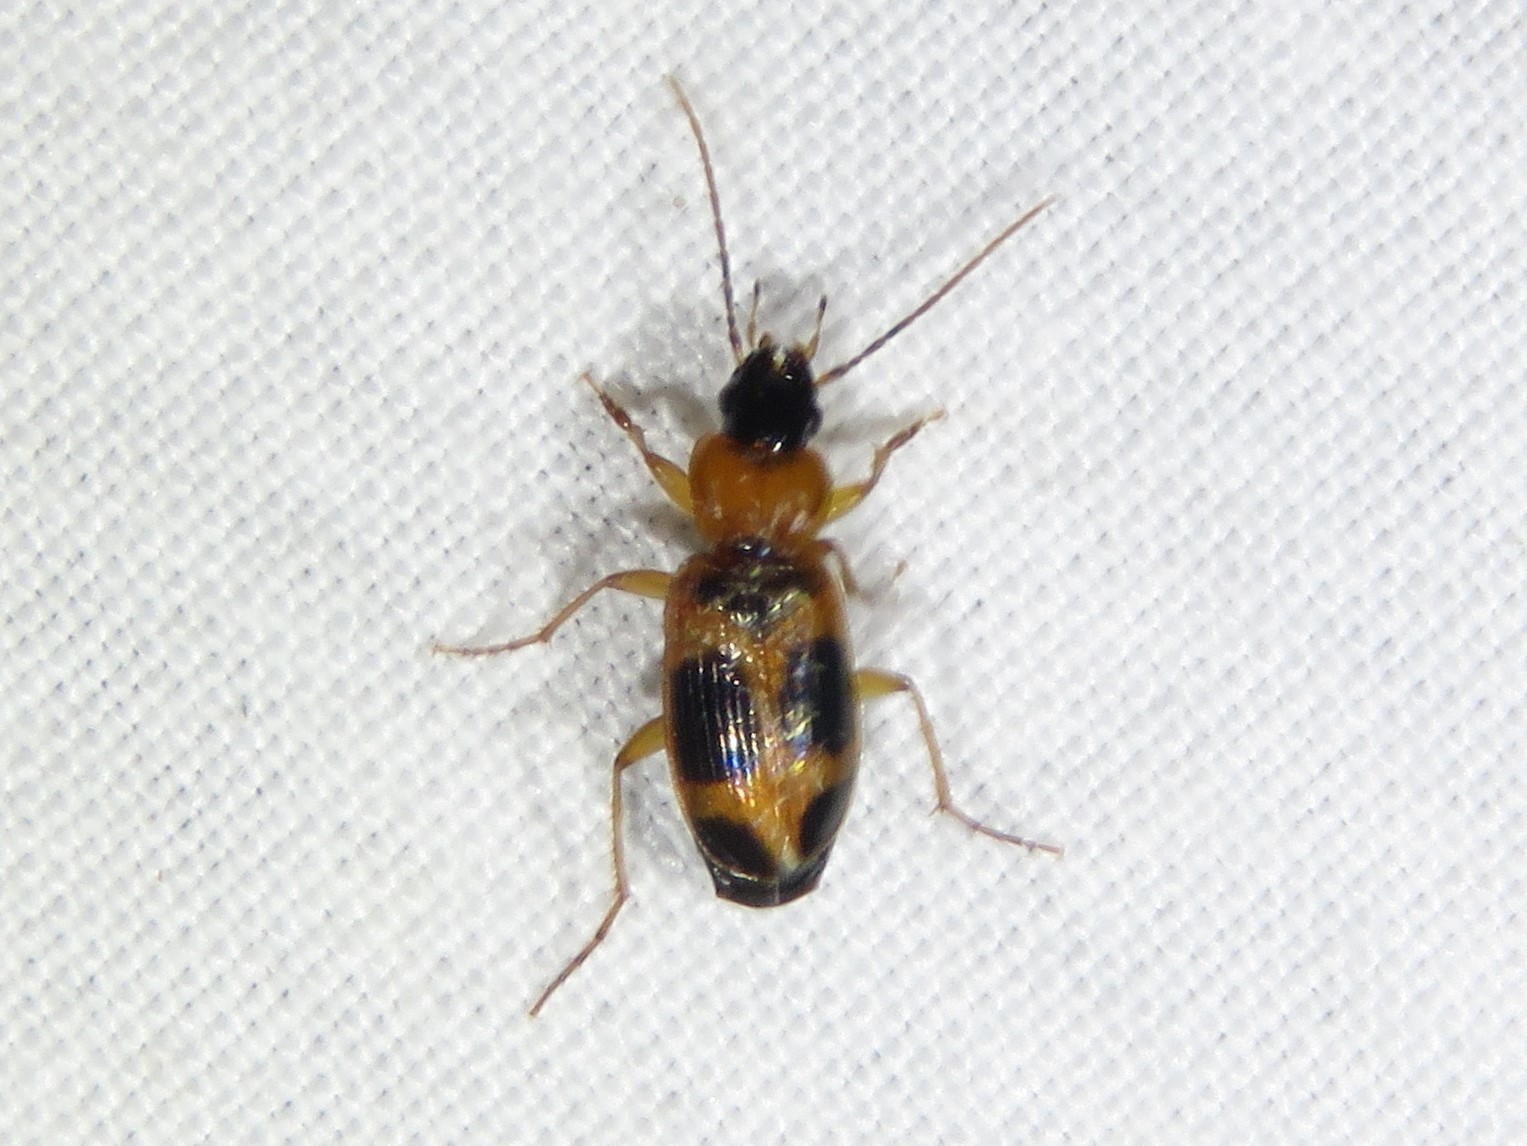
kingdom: Animalia
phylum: Arthropoda
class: Insecta
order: Coleoptera
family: Carabidae
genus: Badister
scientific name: Badister neopulchellus
